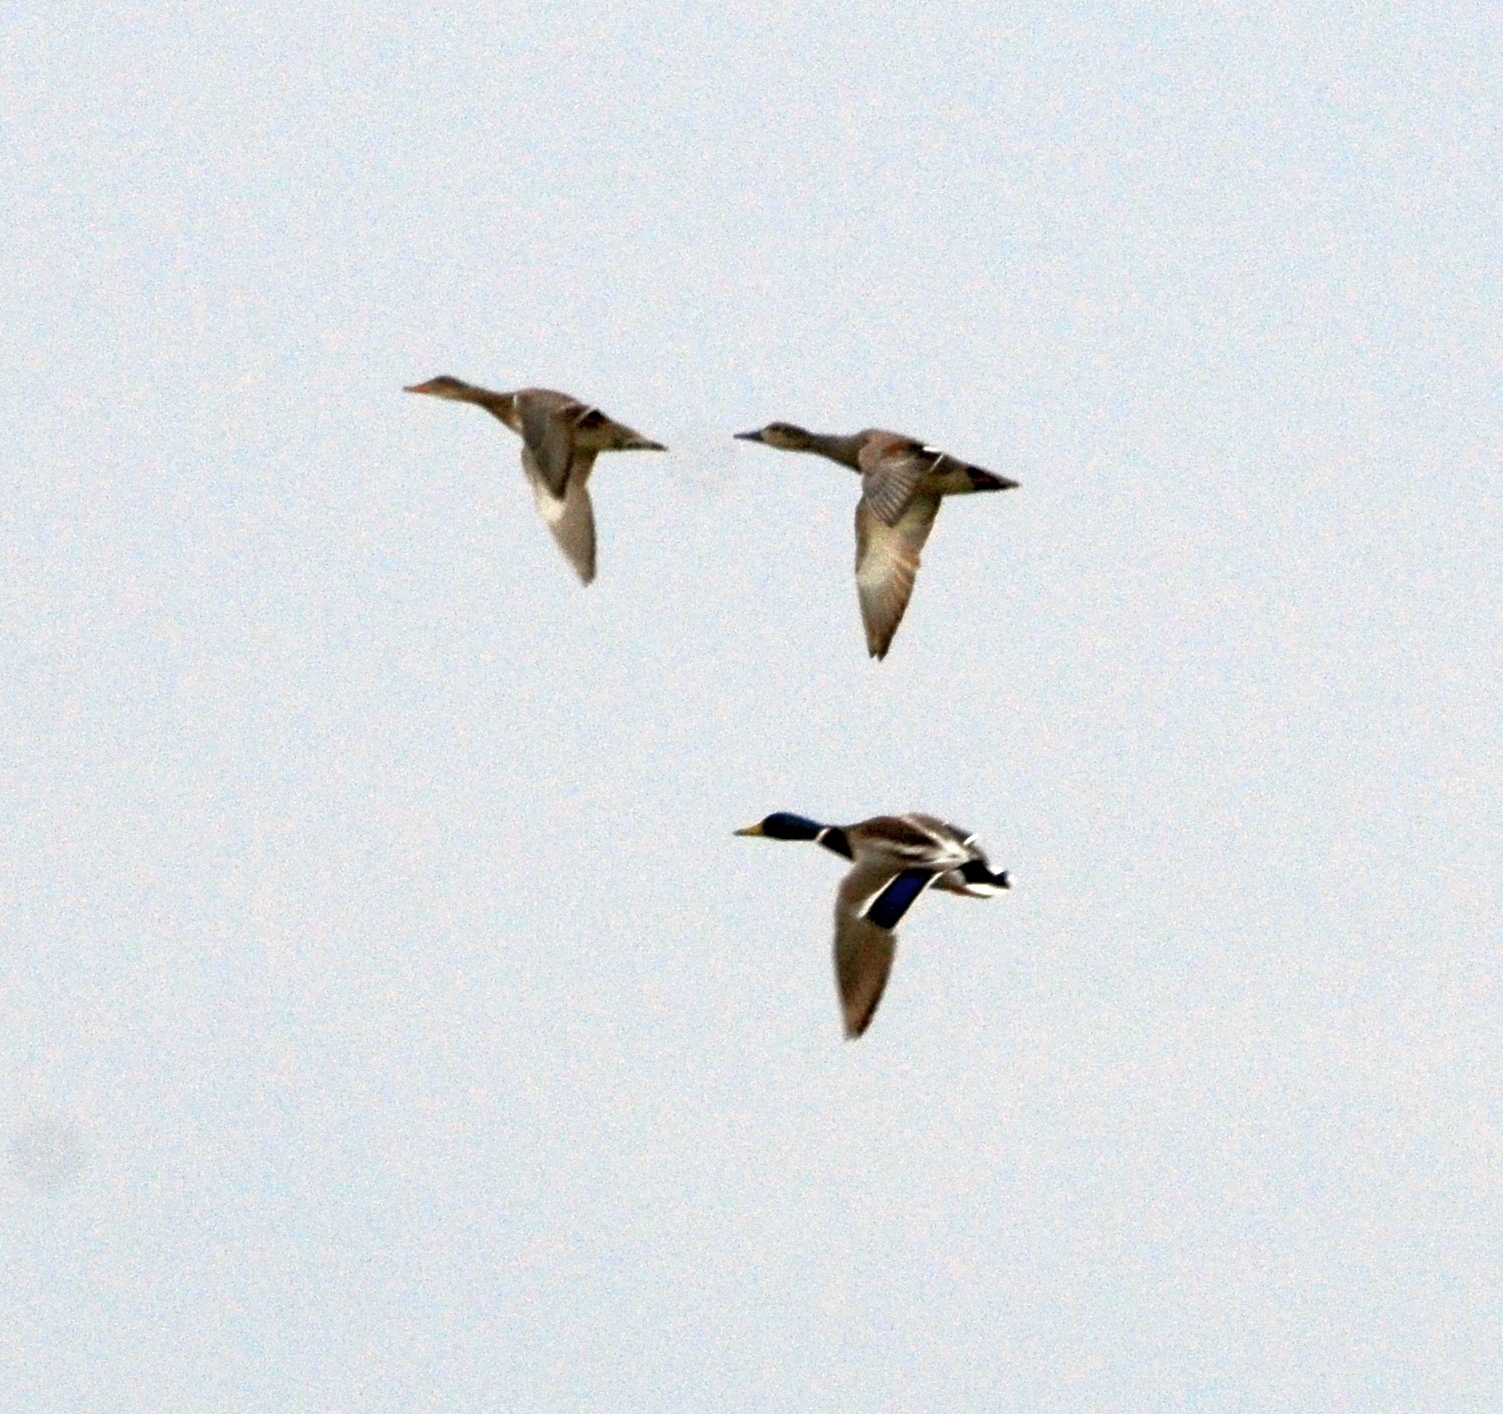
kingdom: Animalia
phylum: Chordata
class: Aves
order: Anseriformes
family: Anatidae
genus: Anas
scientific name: Anas platyrhynchos
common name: Mallard
